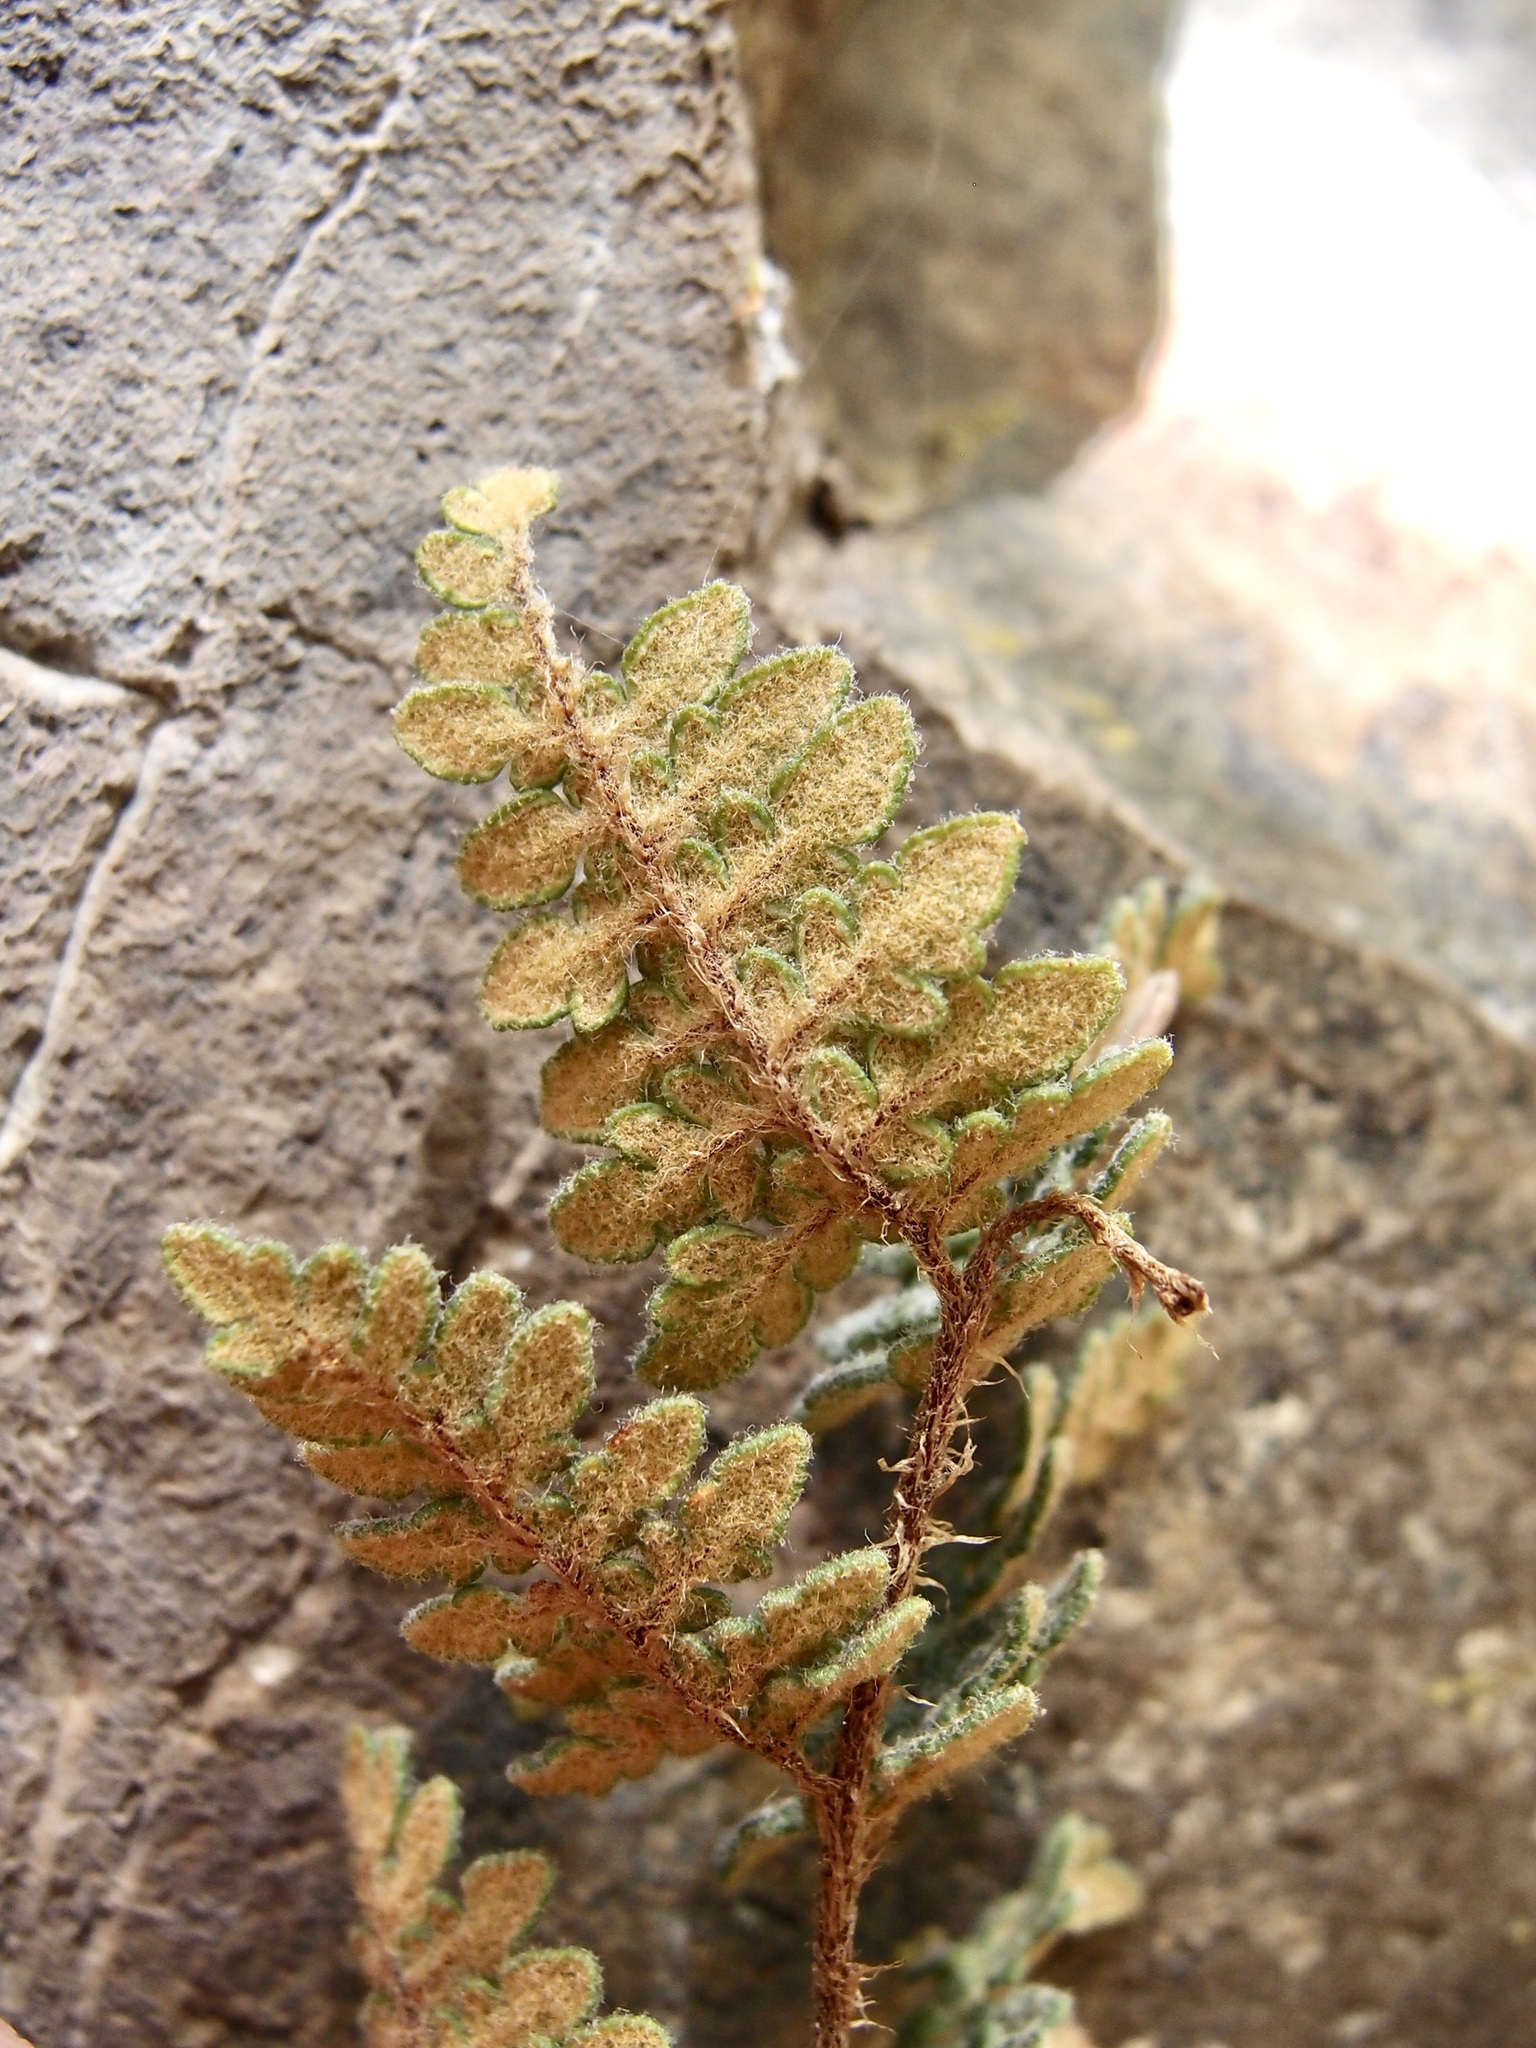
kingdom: Plantae
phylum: Tracheophyta
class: Polypodiopsida
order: Polypodiales
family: Pteridaceae
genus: Myriopteris
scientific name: Myriopteris rufa
